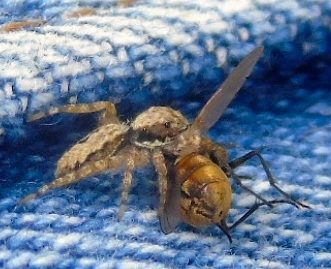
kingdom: Animalia
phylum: Arthropoda
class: Arachnida
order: Araneae
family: Salticidae
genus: Balmaceda
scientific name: Balmaceda
